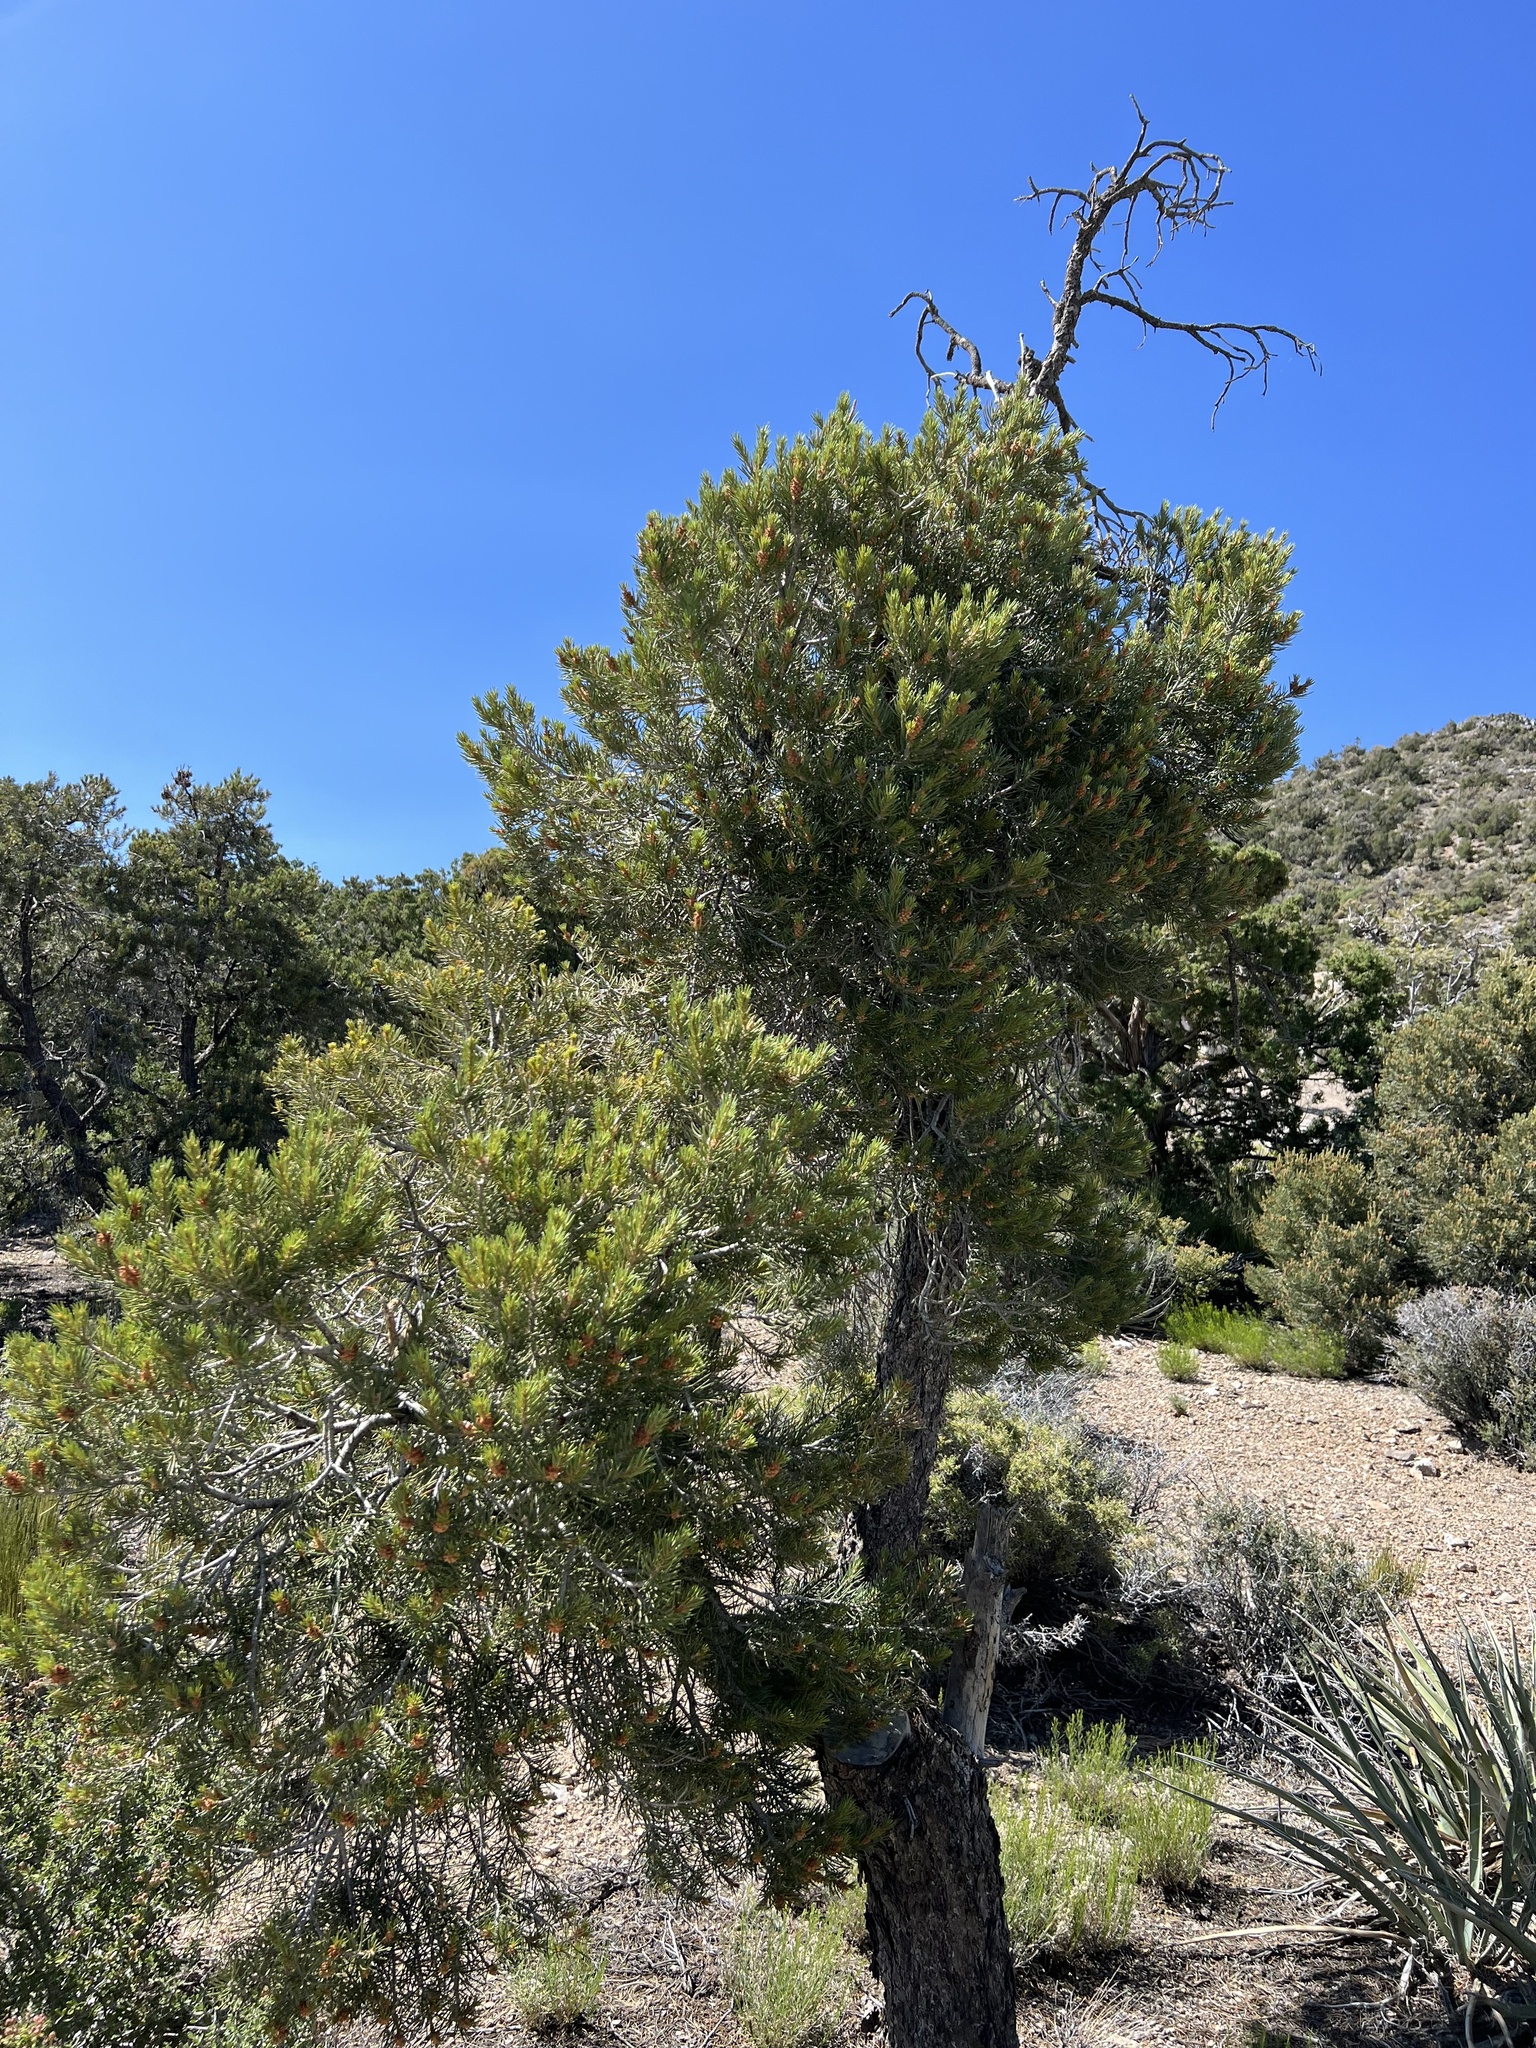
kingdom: Plantae
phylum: Tracheophyta
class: Pinopsida
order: Pinales
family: Pinaceae
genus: Pinus
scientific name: Pinus monophylla
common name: One-leaved nut pine
